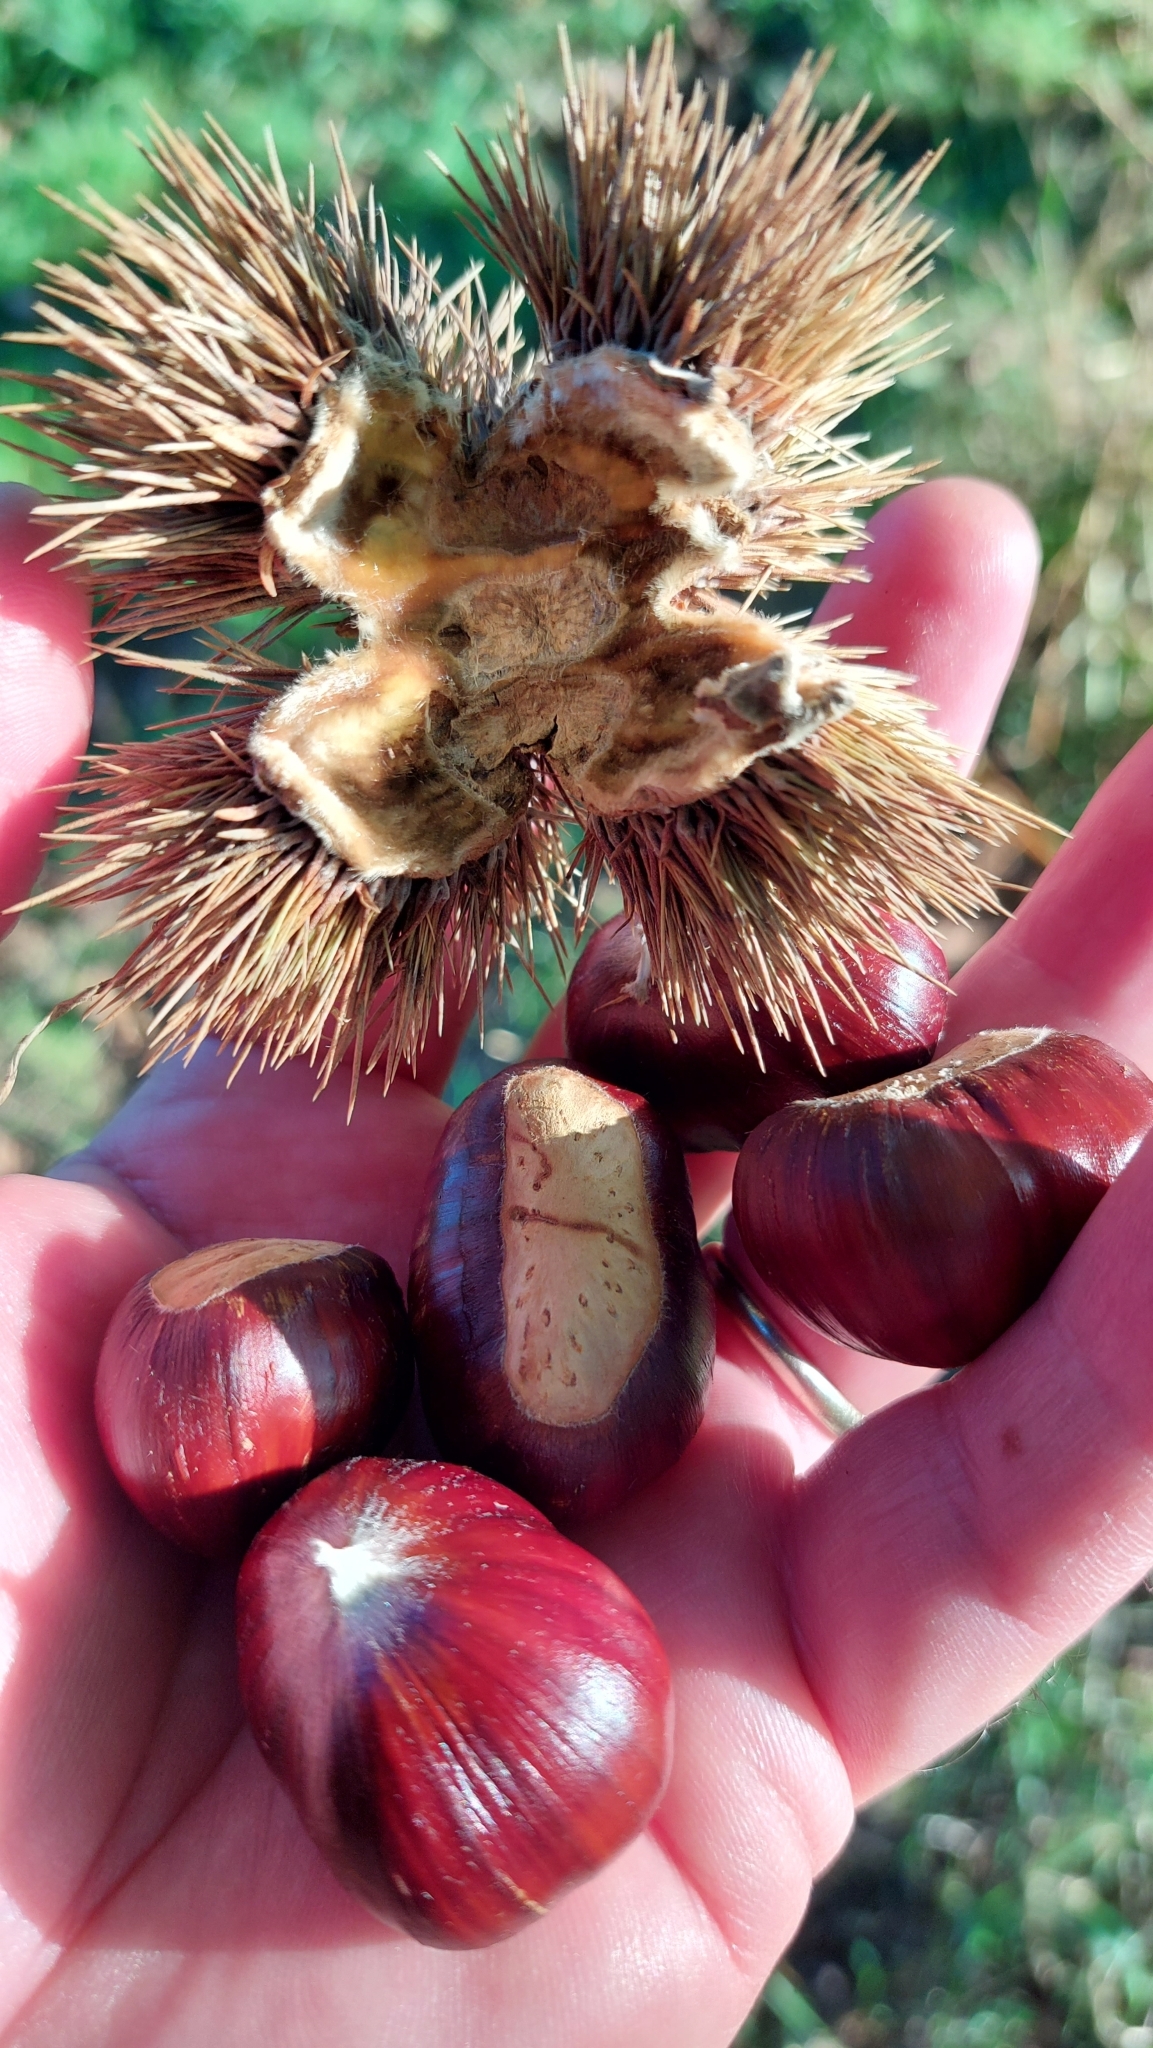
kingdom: Plantae
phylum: Tracheophyta
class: Magnoliopsida
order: Fagales
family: Fagaceae
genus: Castanea
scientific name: Castanea sativa
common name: Sweet chestnut
